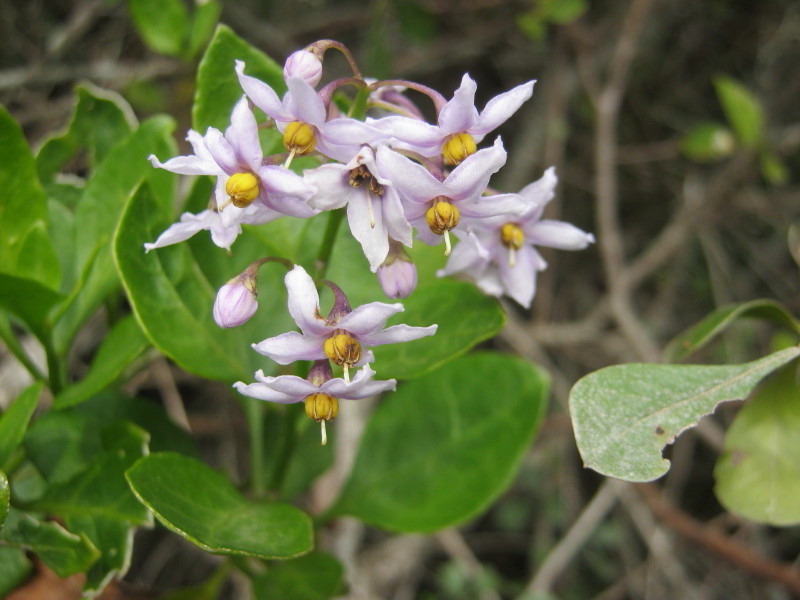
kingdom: Plantae
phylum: Tracheophyta
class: Magnoliopsida
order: Solanales
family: Solanaceae
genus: Solanum
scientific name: Solanum africanum
